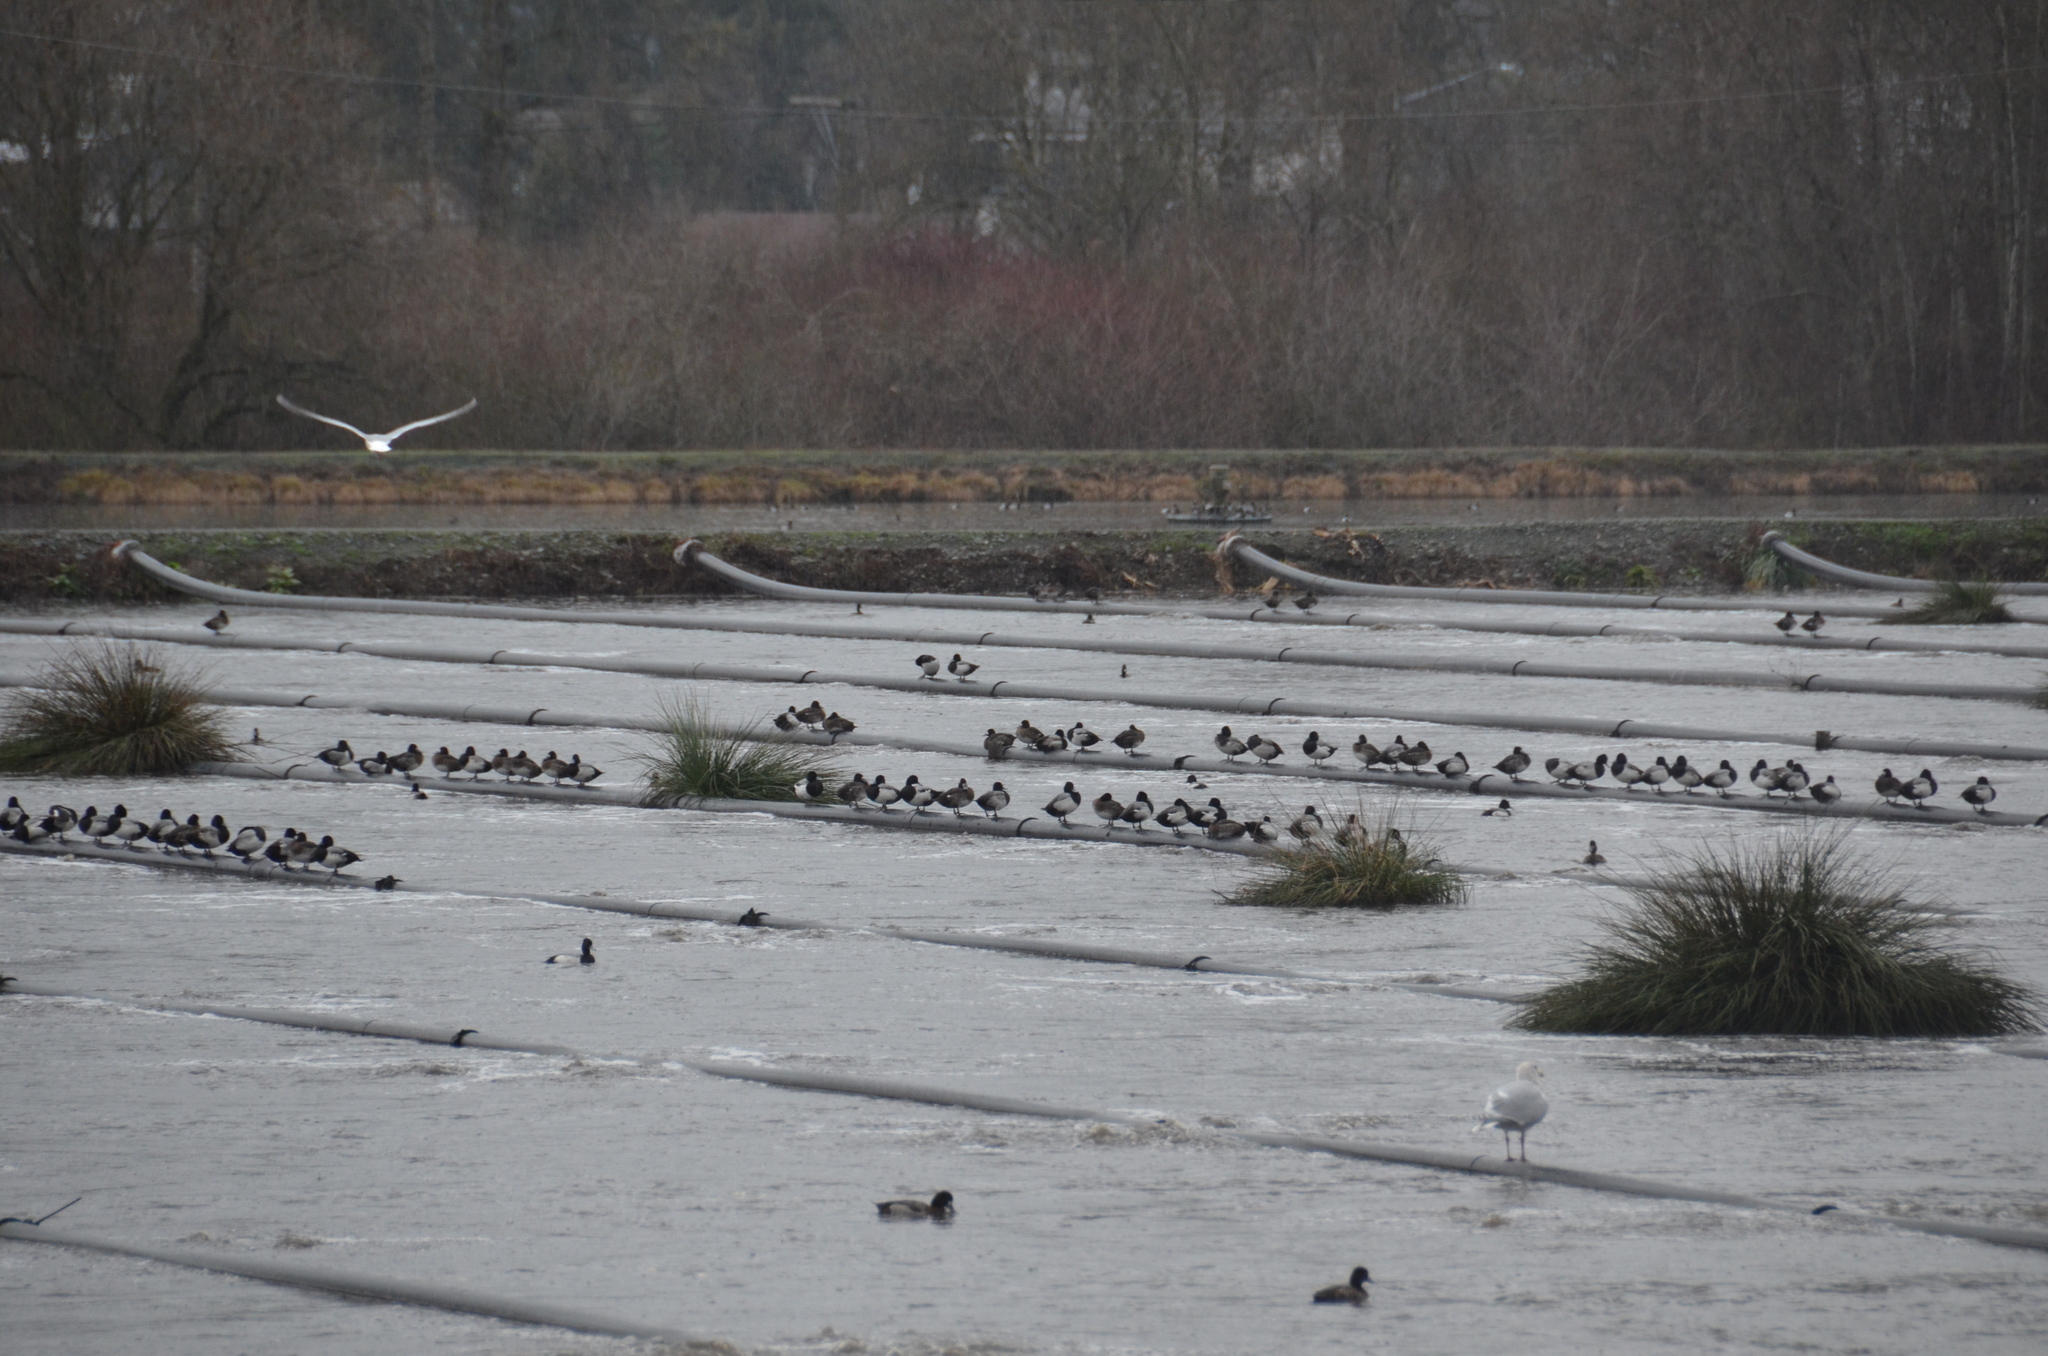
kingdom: Animalia
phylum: Chordata
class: Aves
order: Anseriformes
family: Anatidae
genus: Aythya
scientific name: Aythya affinis
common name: Lesser scaup
